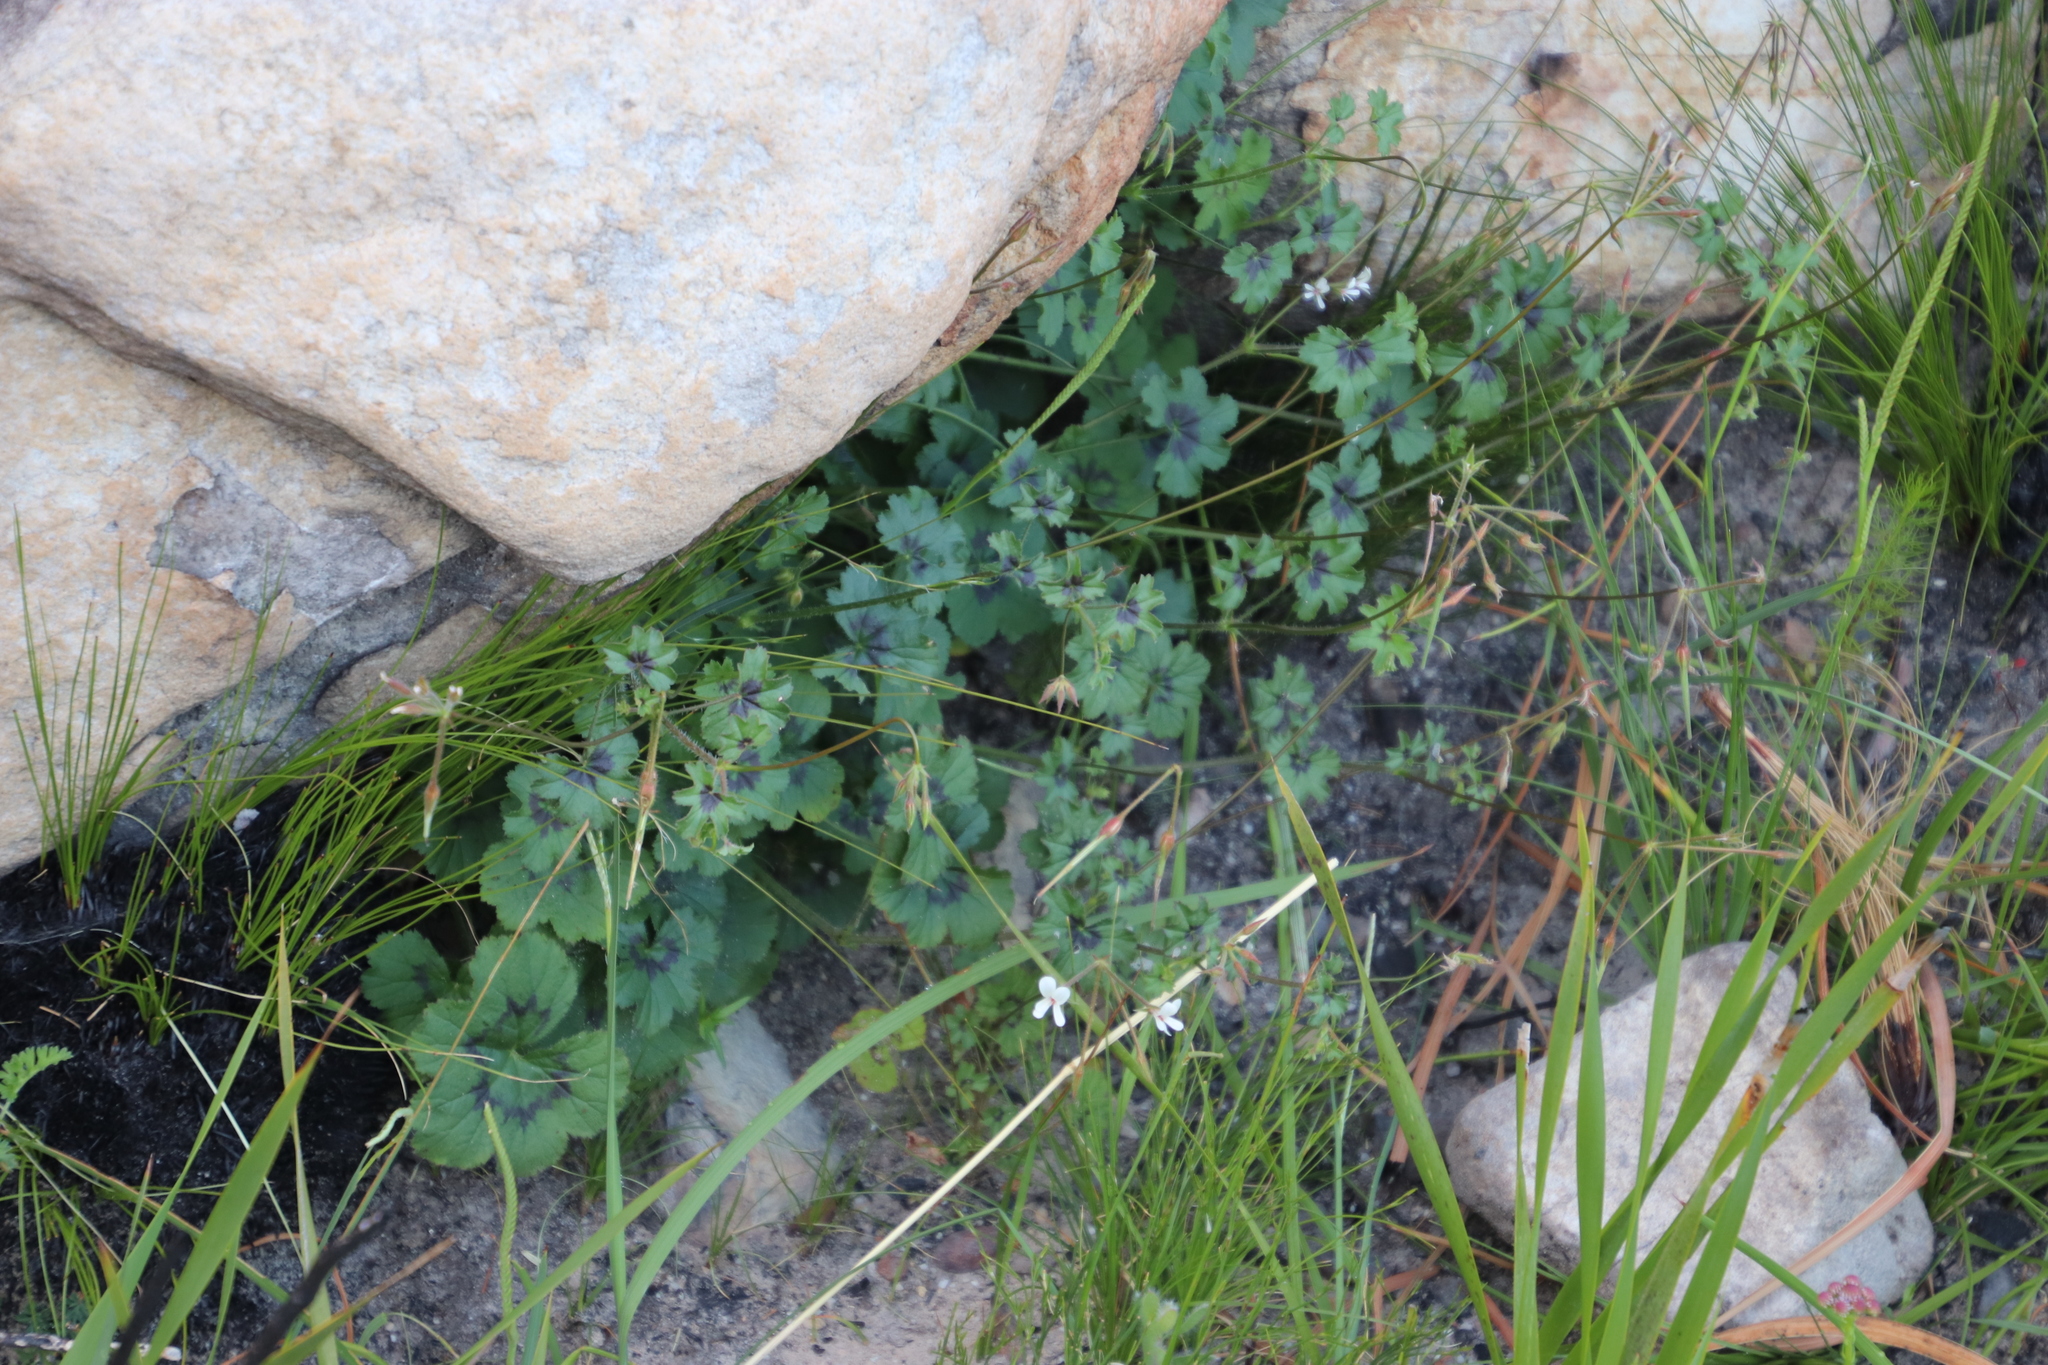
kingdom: Plantae
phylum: Tracheophyta
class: Magnoliopsida
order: Geraniales
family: Geraniaceae
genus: Pelargonium
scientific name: Pelargonium elongatum
